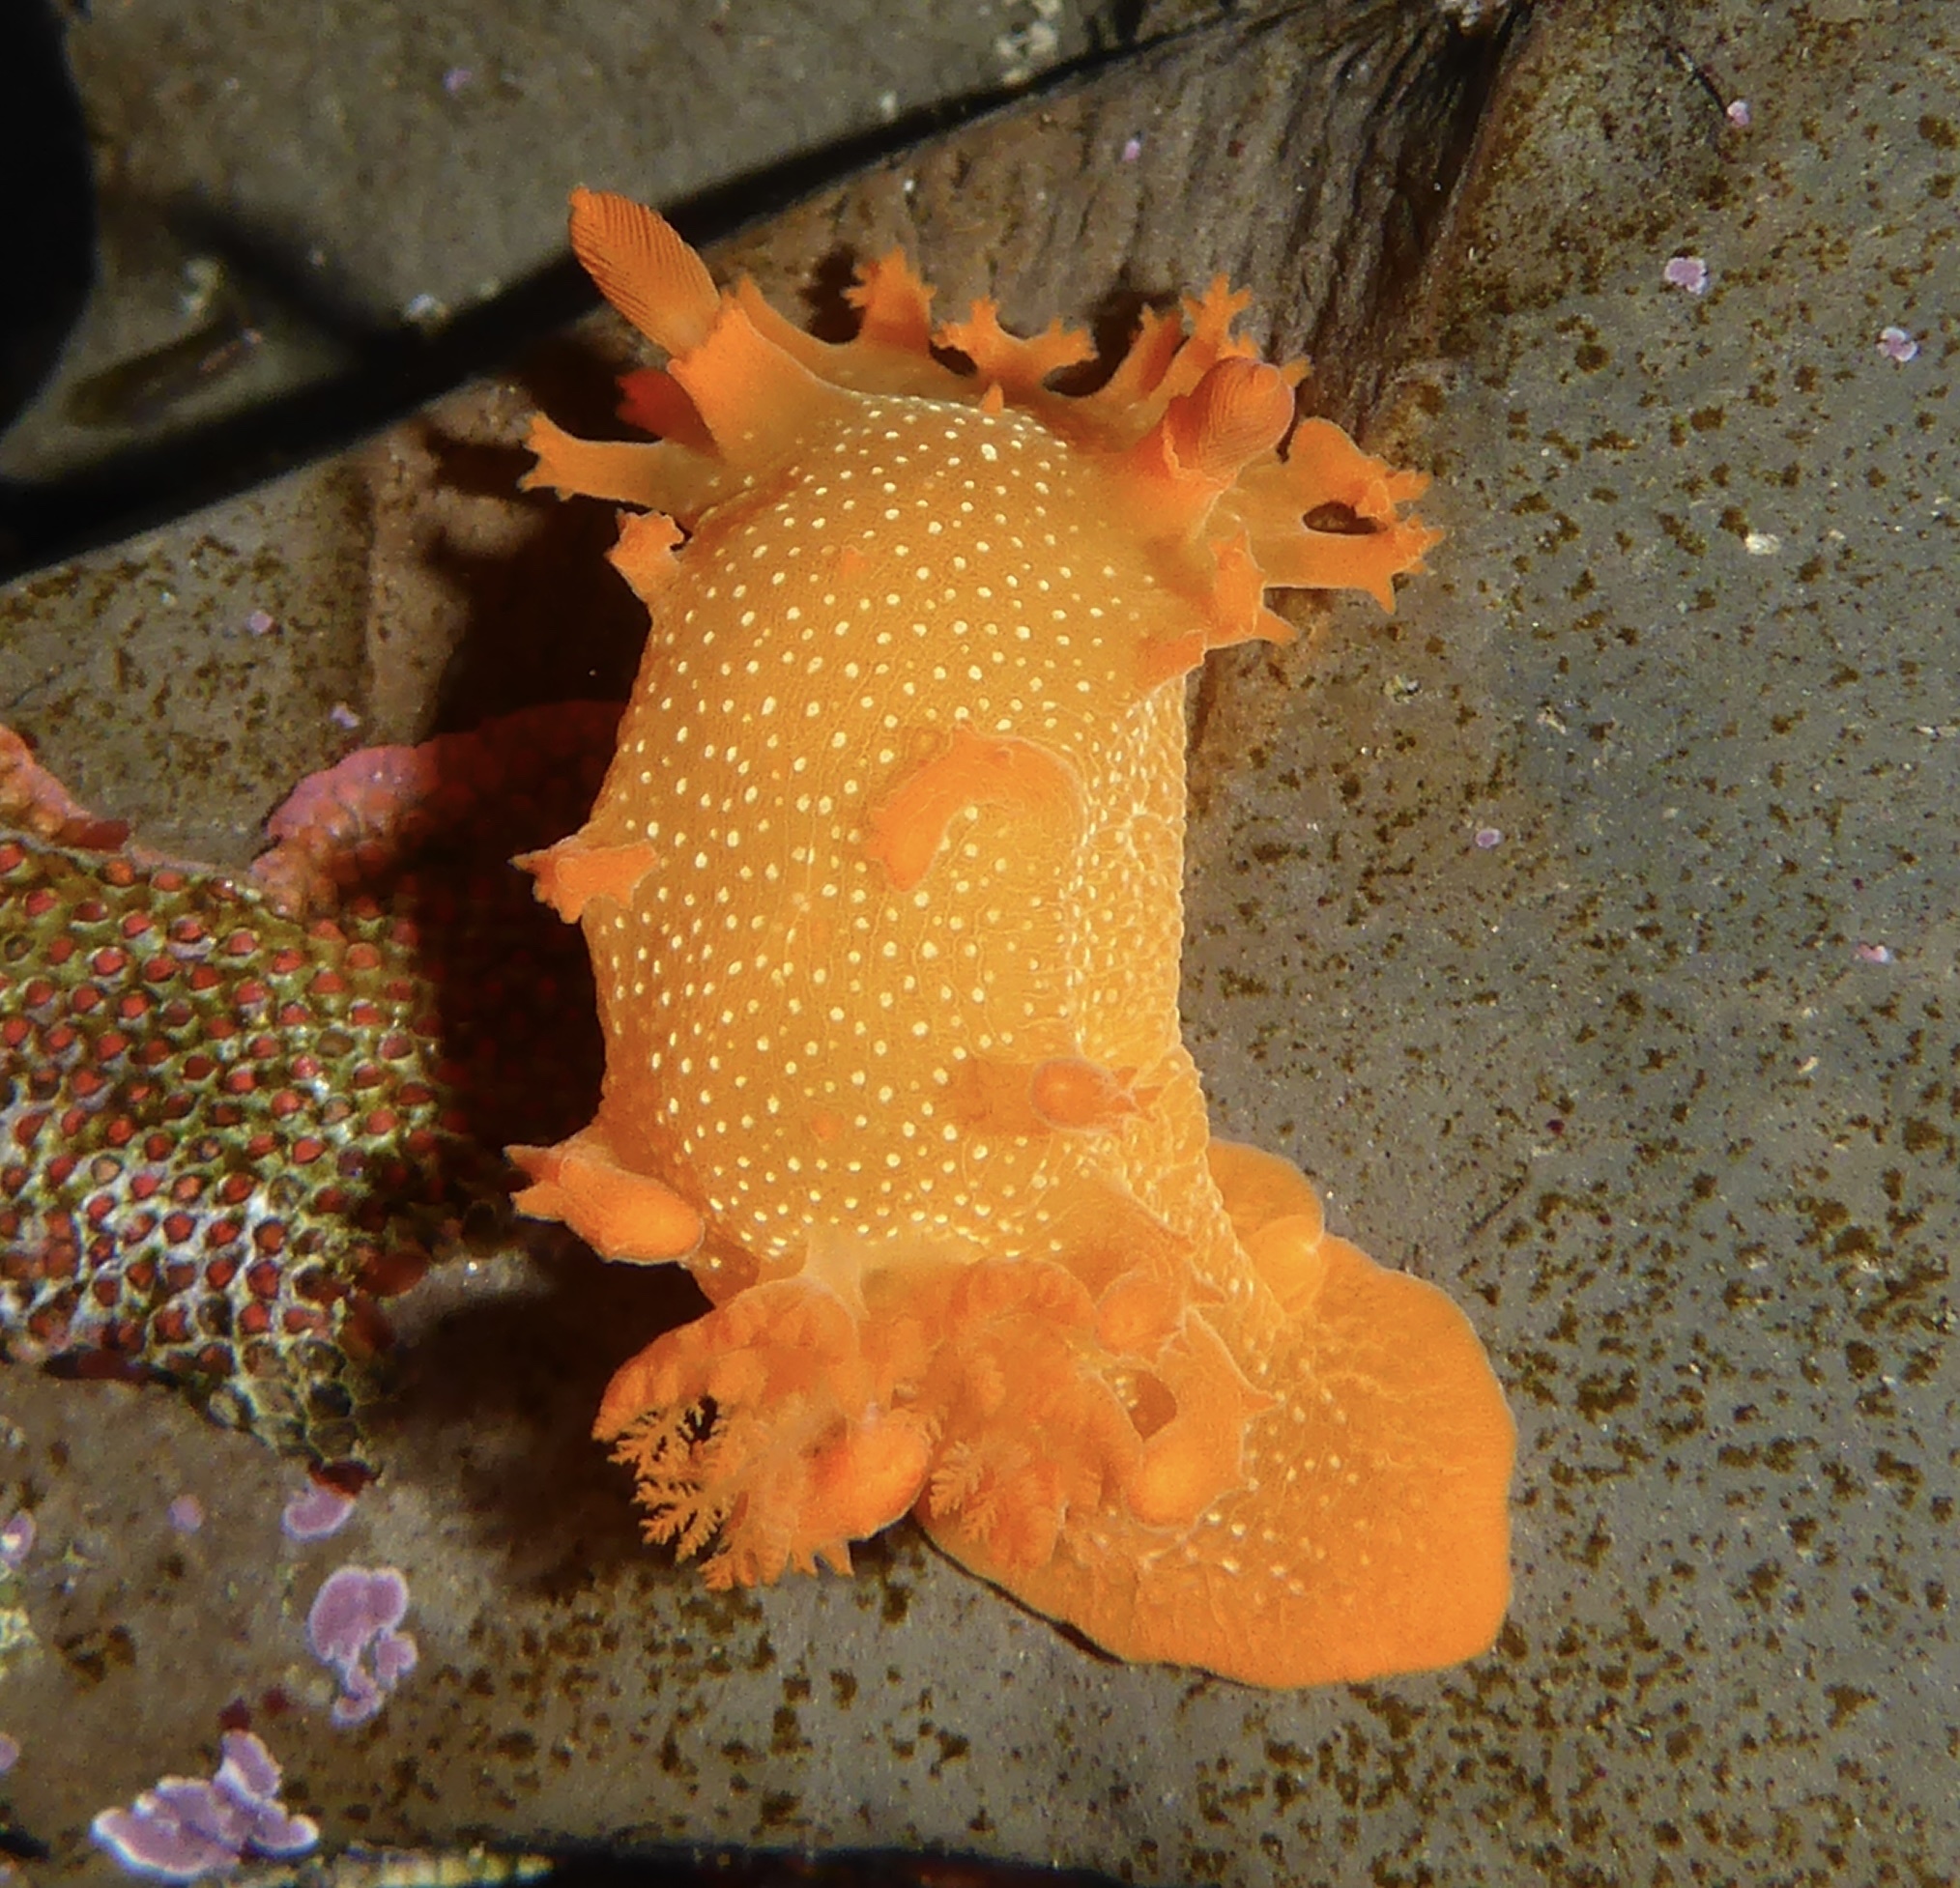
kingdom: Animalia
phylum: Mollusca
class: Gastropoda
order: Nudibranchia
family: Polyceridae
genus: Triopha
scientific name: Triopha maculata
